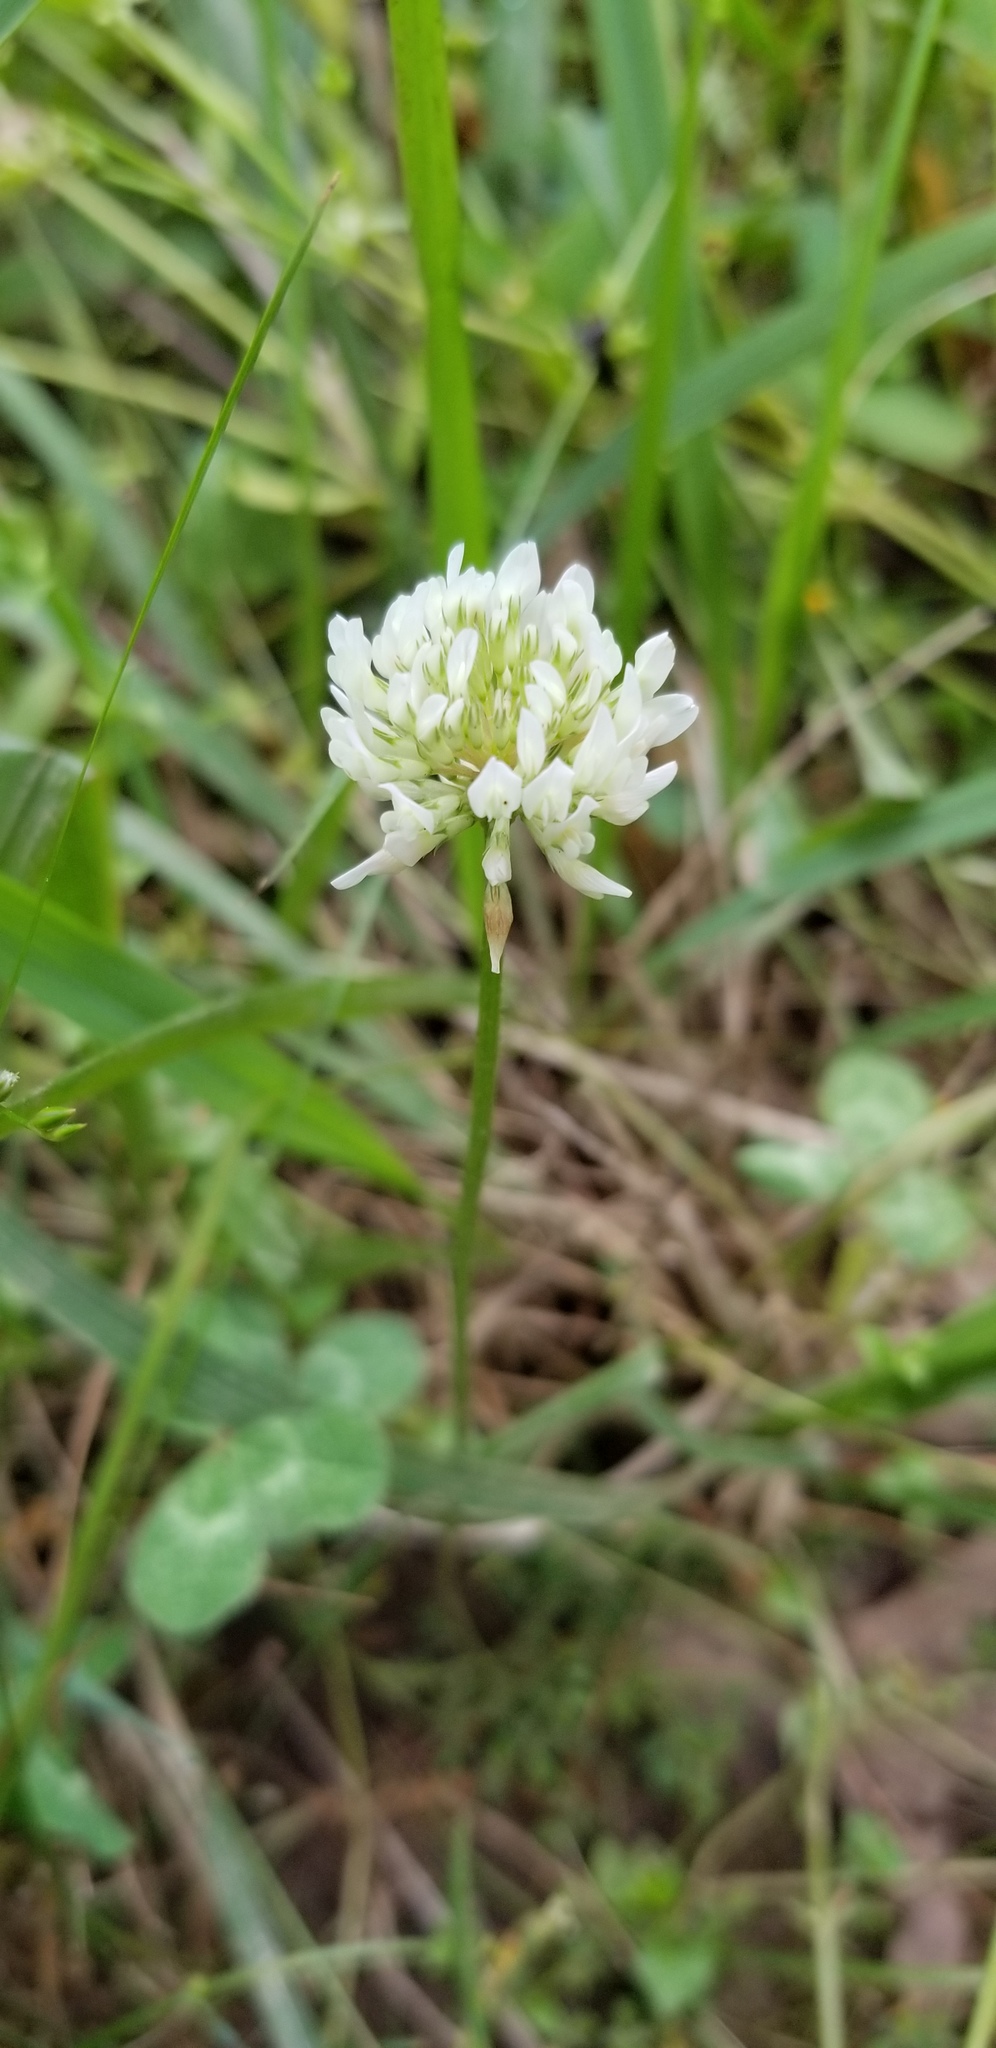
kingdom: Plantae
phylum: Tracheophyta
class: Magnoliopsida
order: Fabales
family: Fabaceae
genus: Trifolium
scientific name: Trifolium repens
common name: White clover
